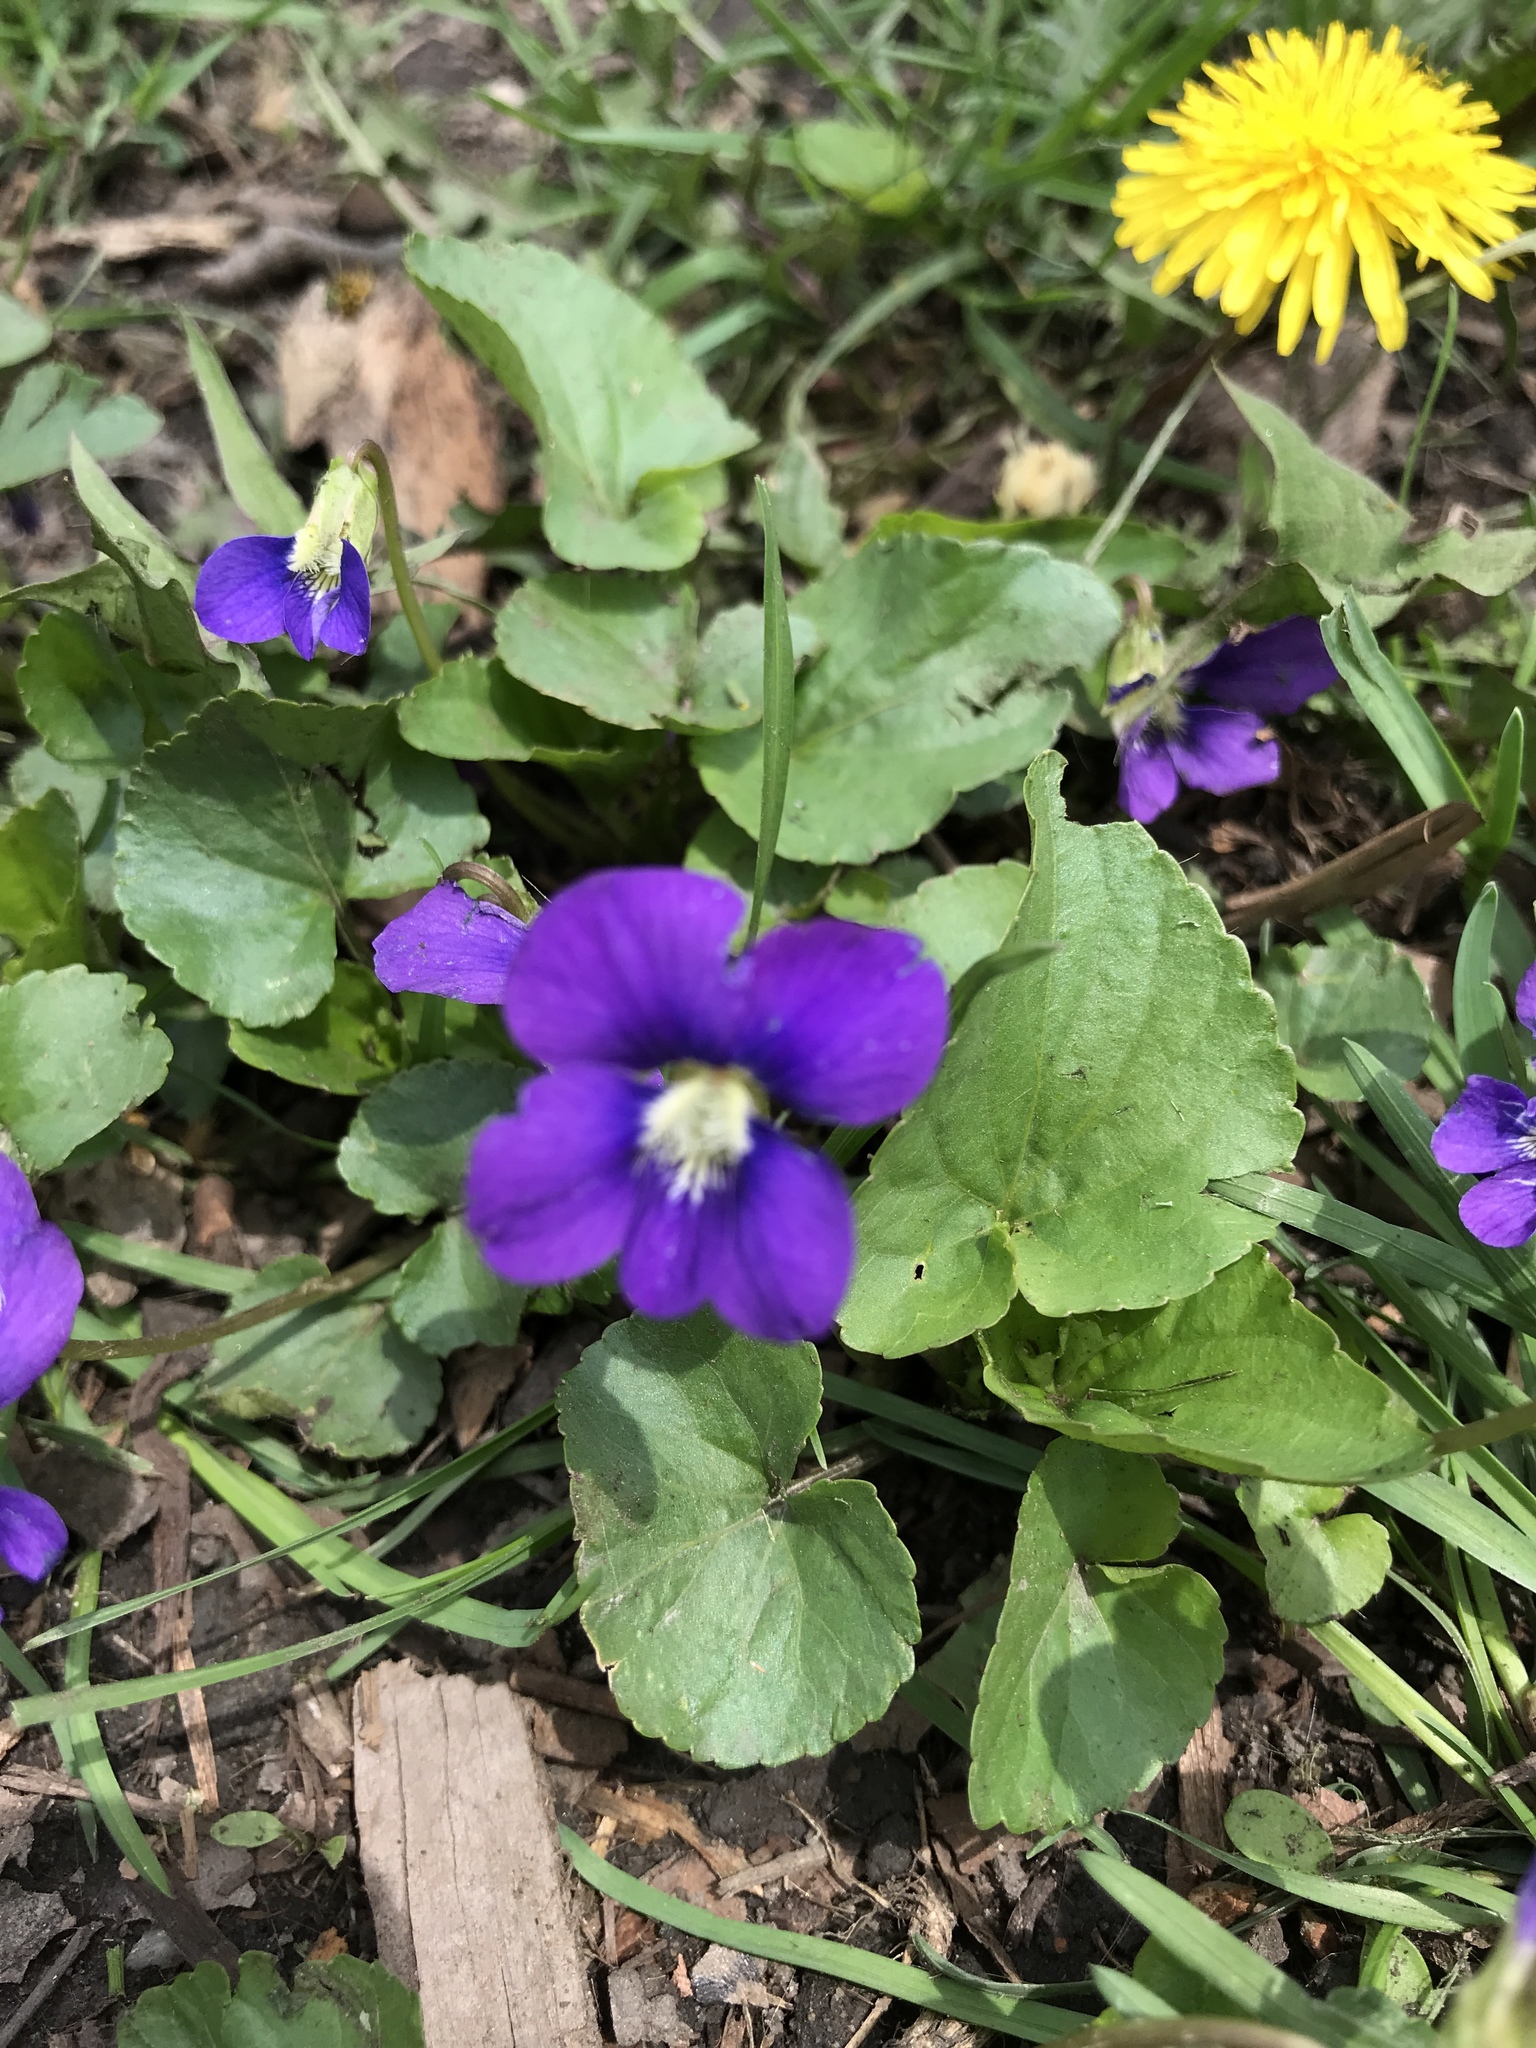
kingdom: Plantae
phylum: Tracheophyta
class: Magnoliopsida
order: Malpighiales
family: Violaceae
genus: Viola
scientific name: Viola sororia
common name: Dooryard violet
